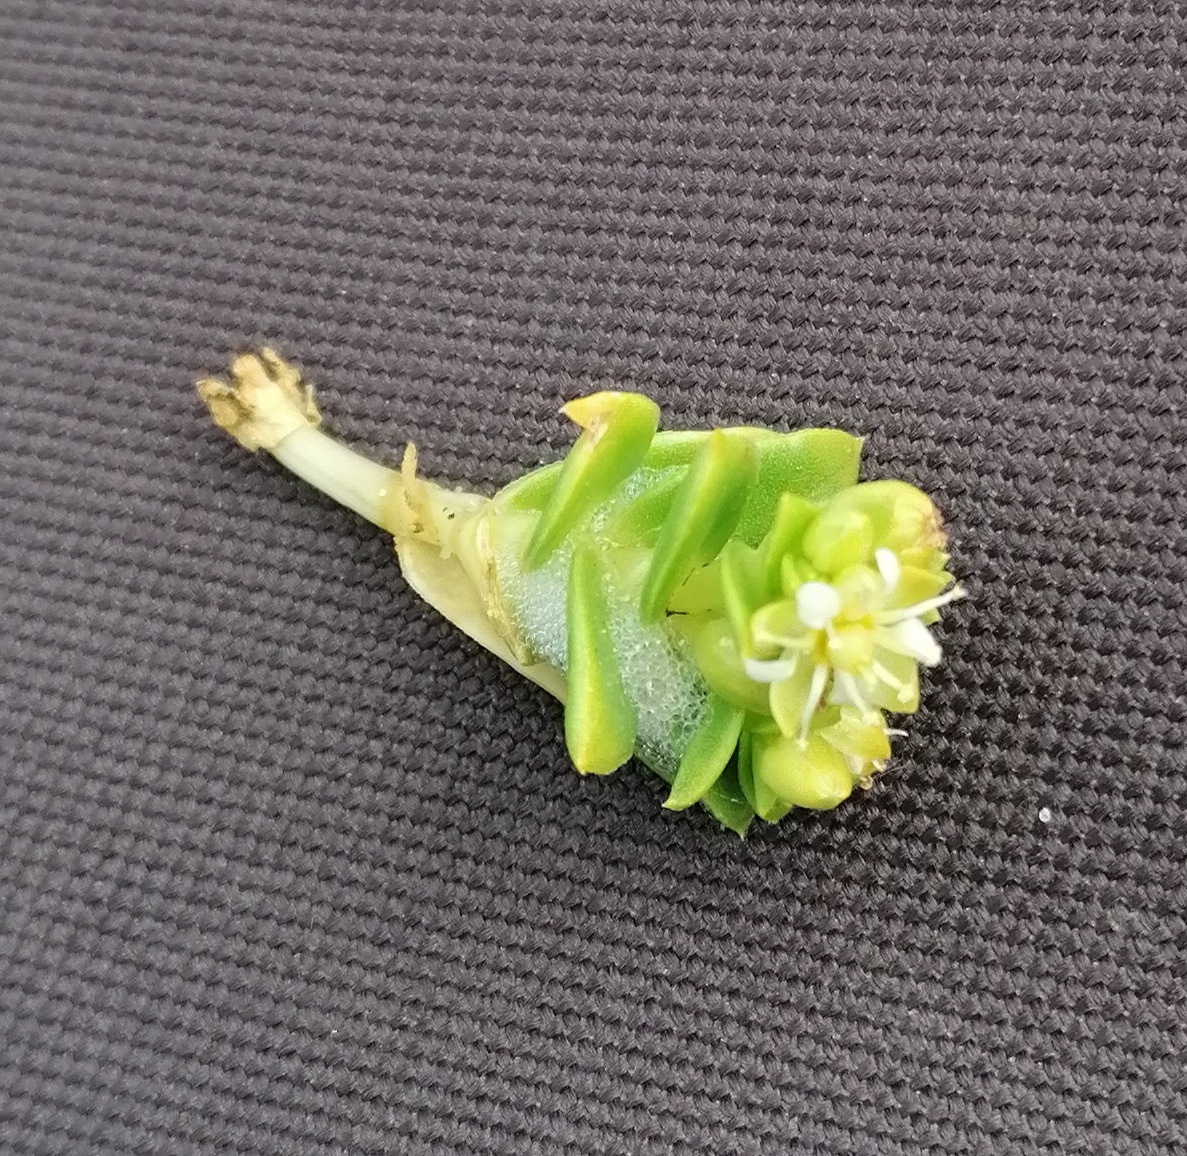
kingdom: Plantae
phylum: Tracheophyta
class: Magnoliopsida
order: Caryophyllales
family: Caryophyllaceae
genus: Honckenya
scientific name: Honckenya peploides
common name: Sea sandwort
